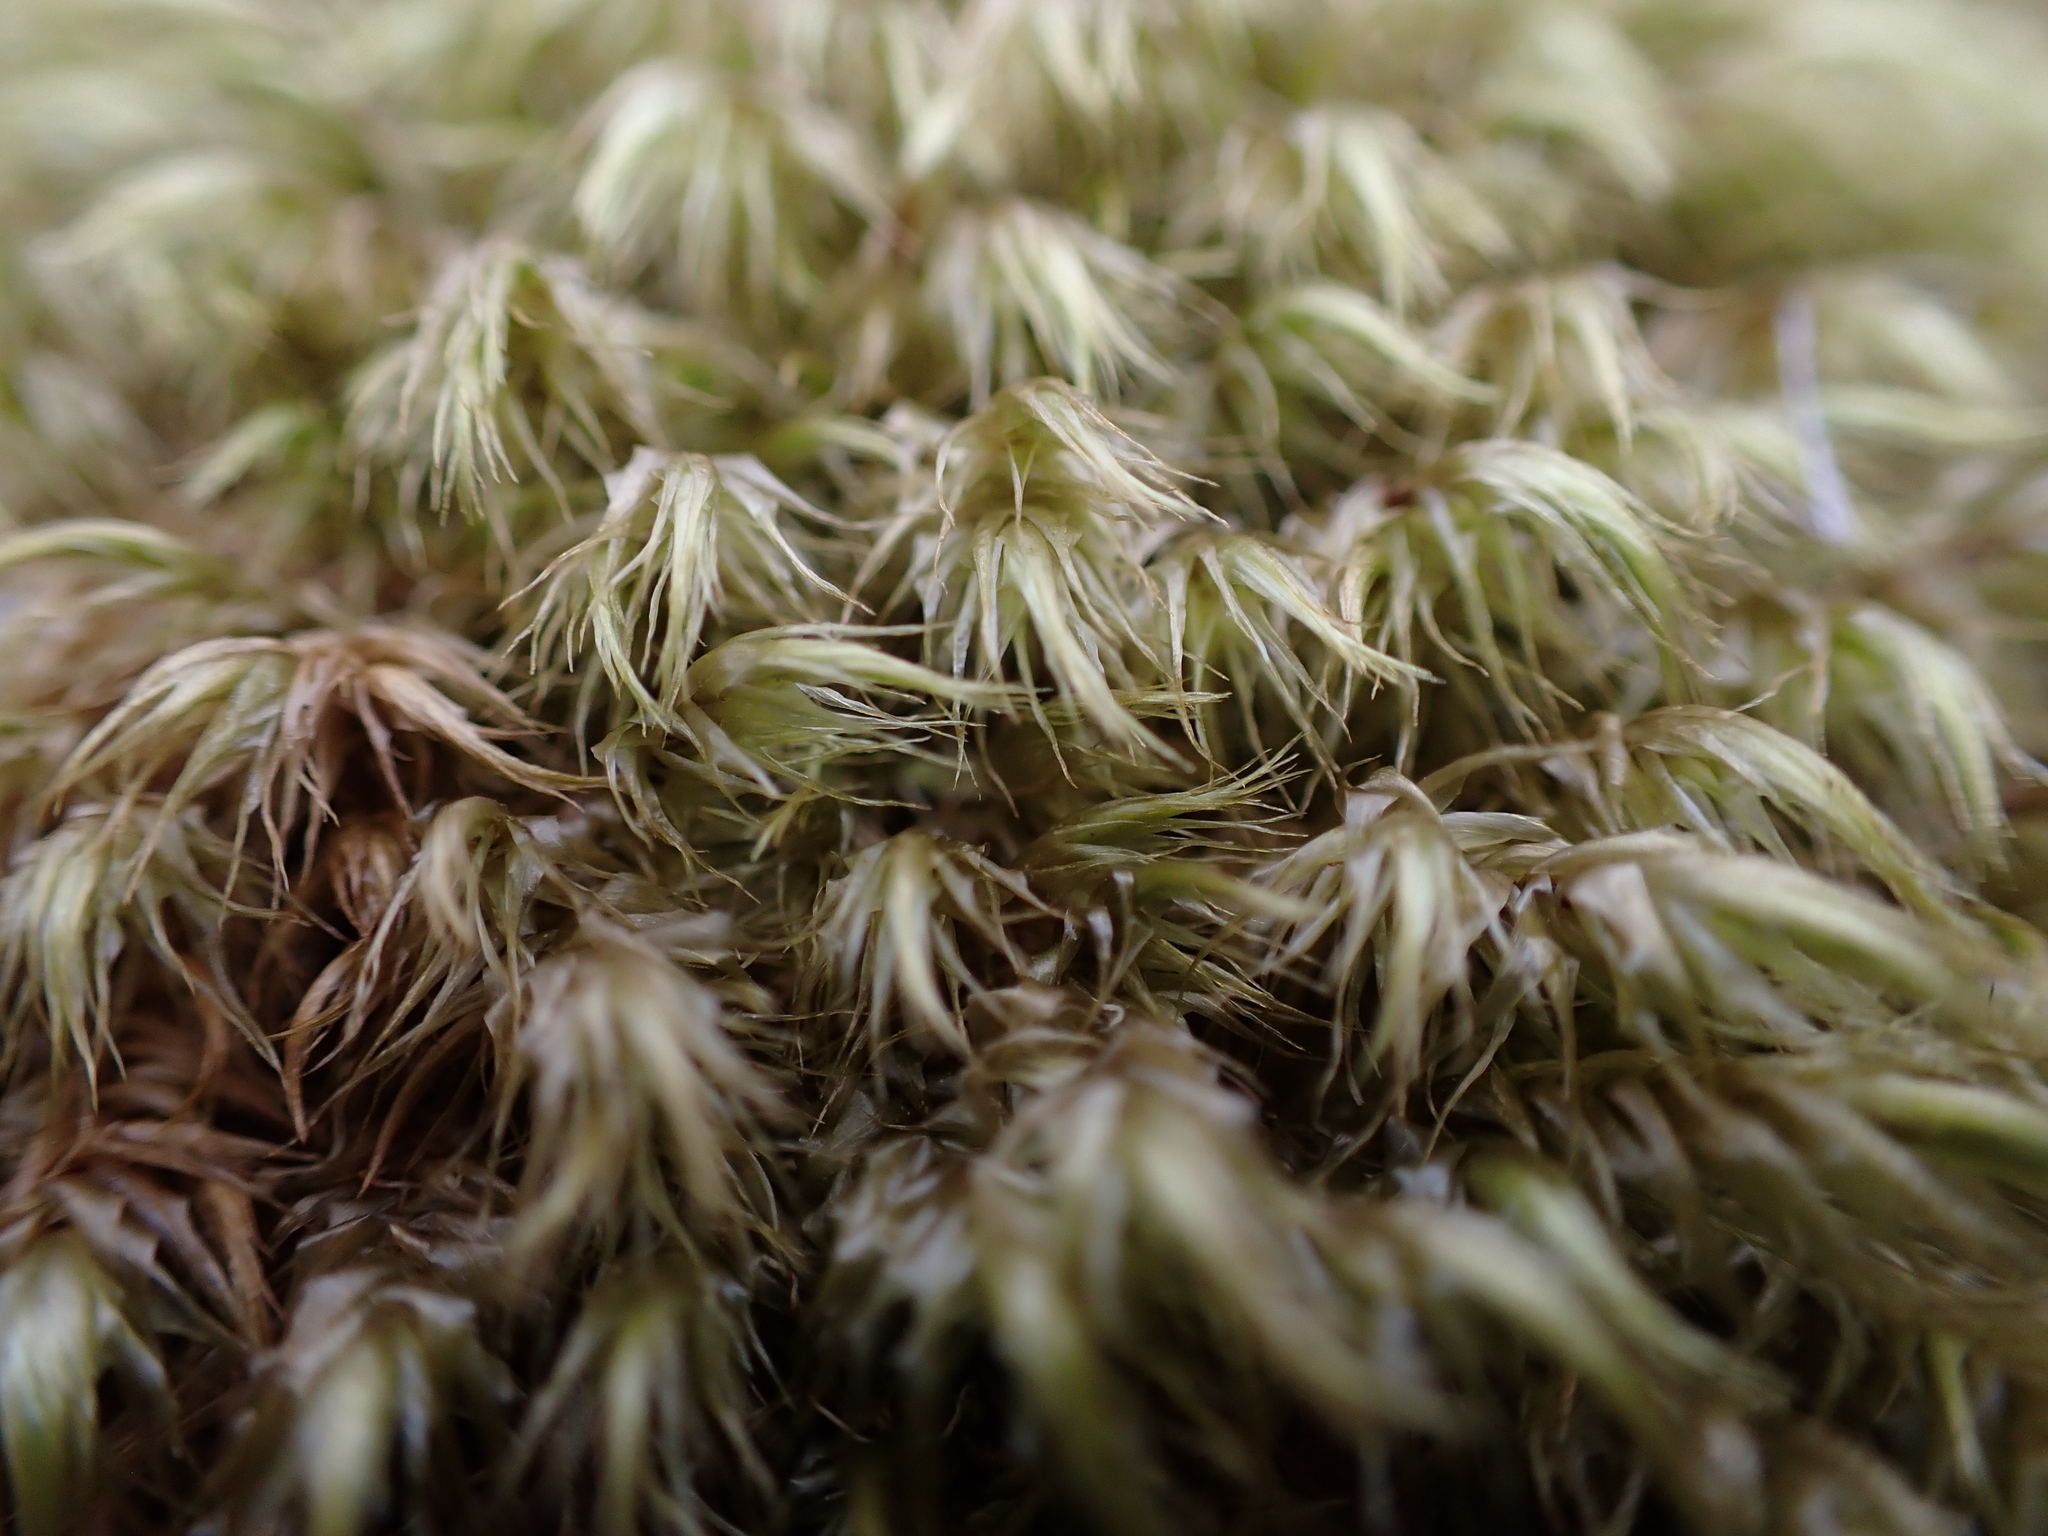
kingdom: Plantae
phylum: Bryophyta
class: Bryopsida
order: Dicranales
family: Dicranaceae
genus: Dicranoloma
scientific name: Dicranoloma billardieri
